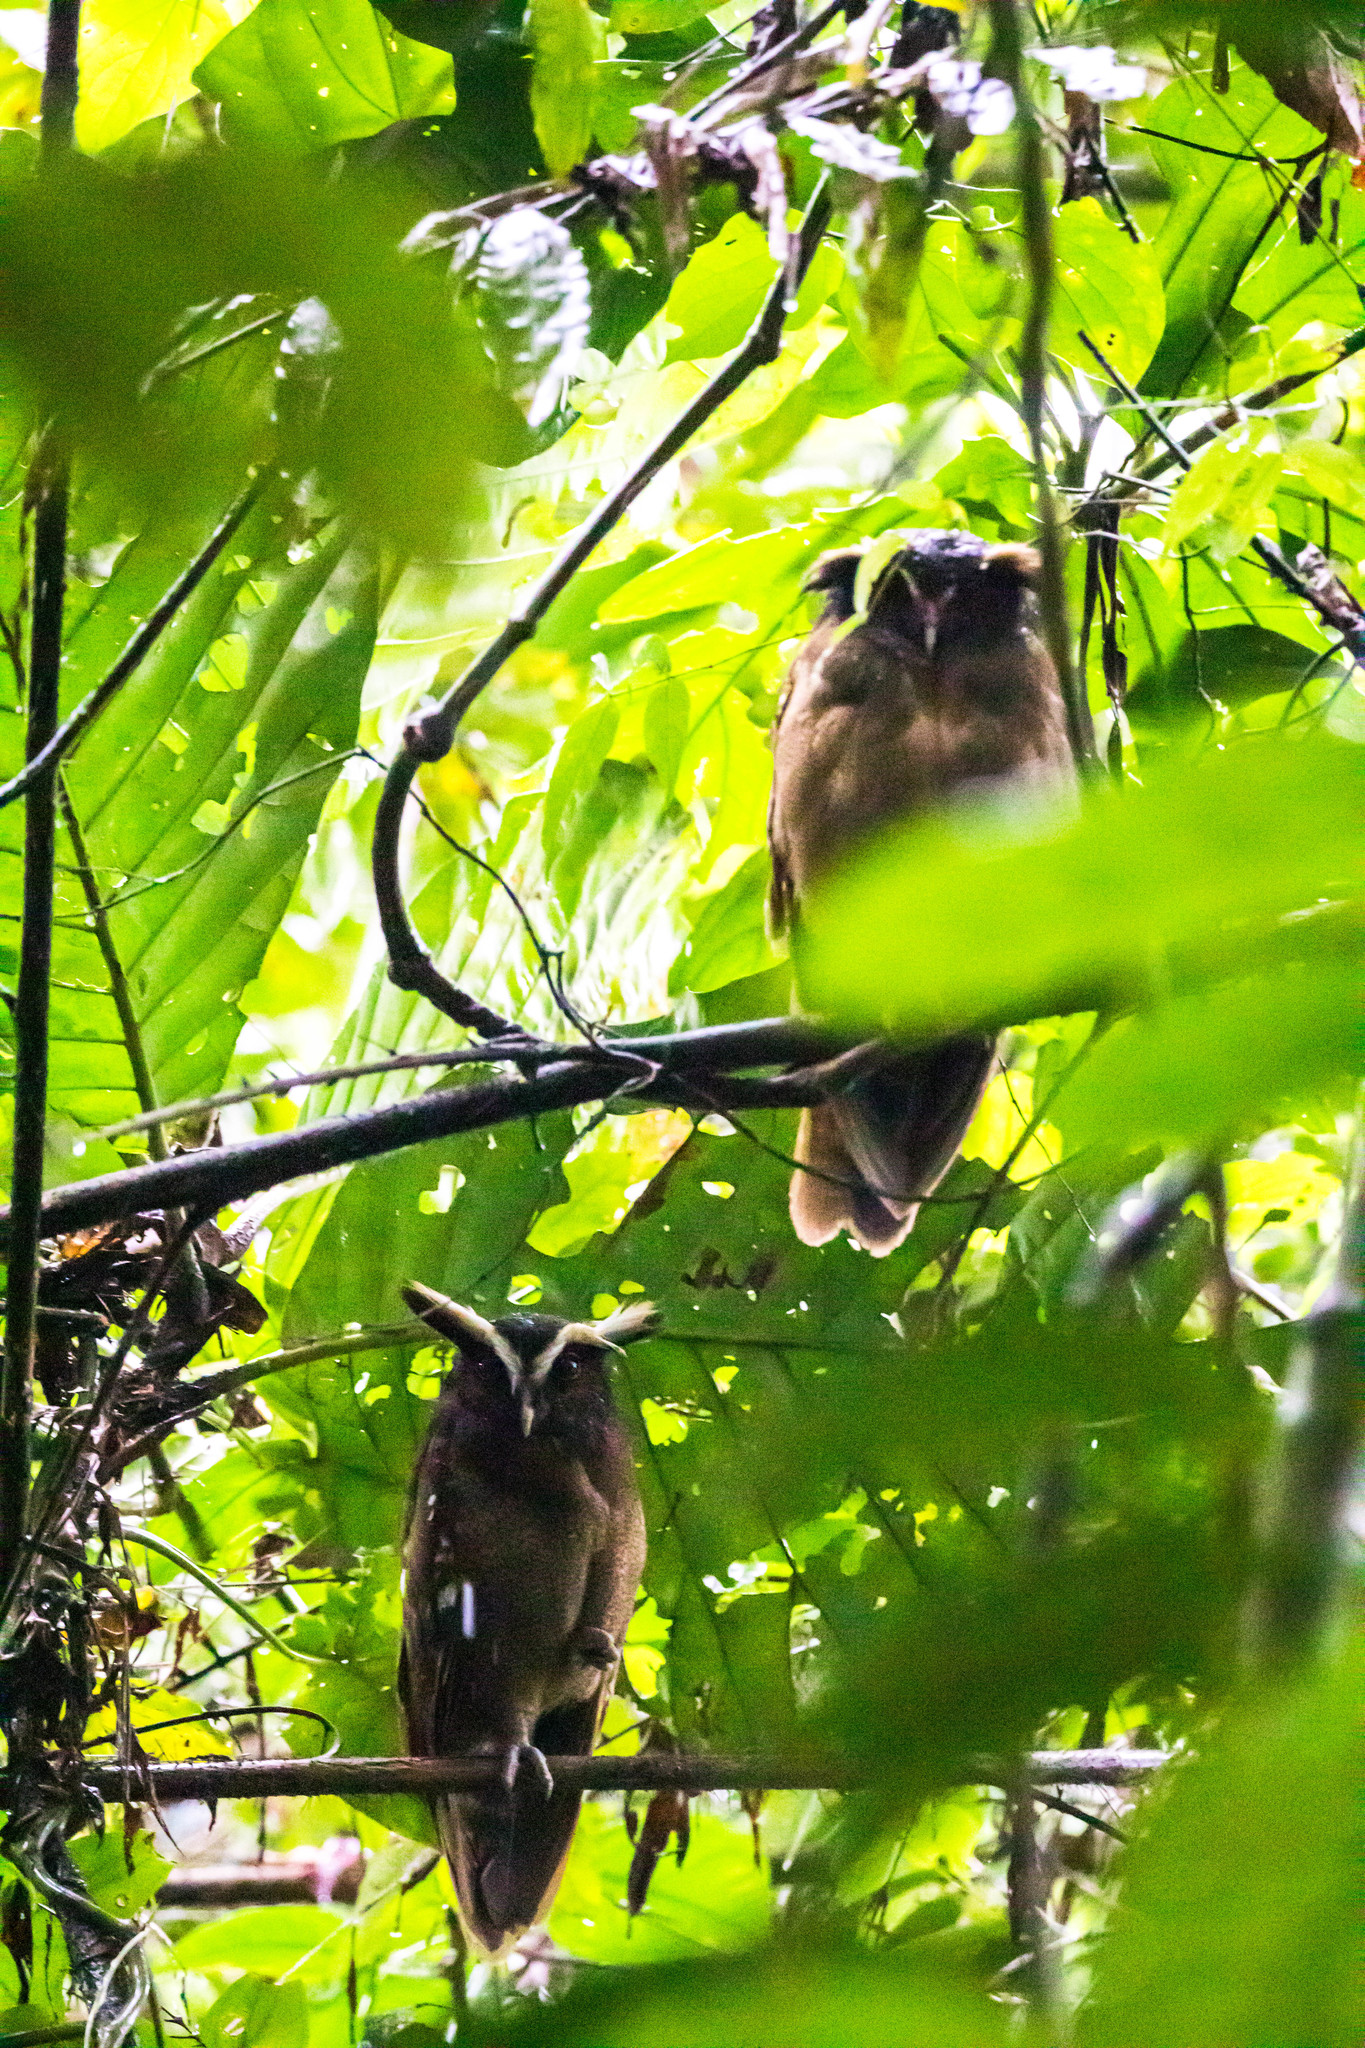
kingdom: Animalia
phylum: Chordata
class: Aves
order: Strigiformes
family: Strigidae
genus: Lophostrix
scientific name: Lophostrix cristata
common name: Crested owl
